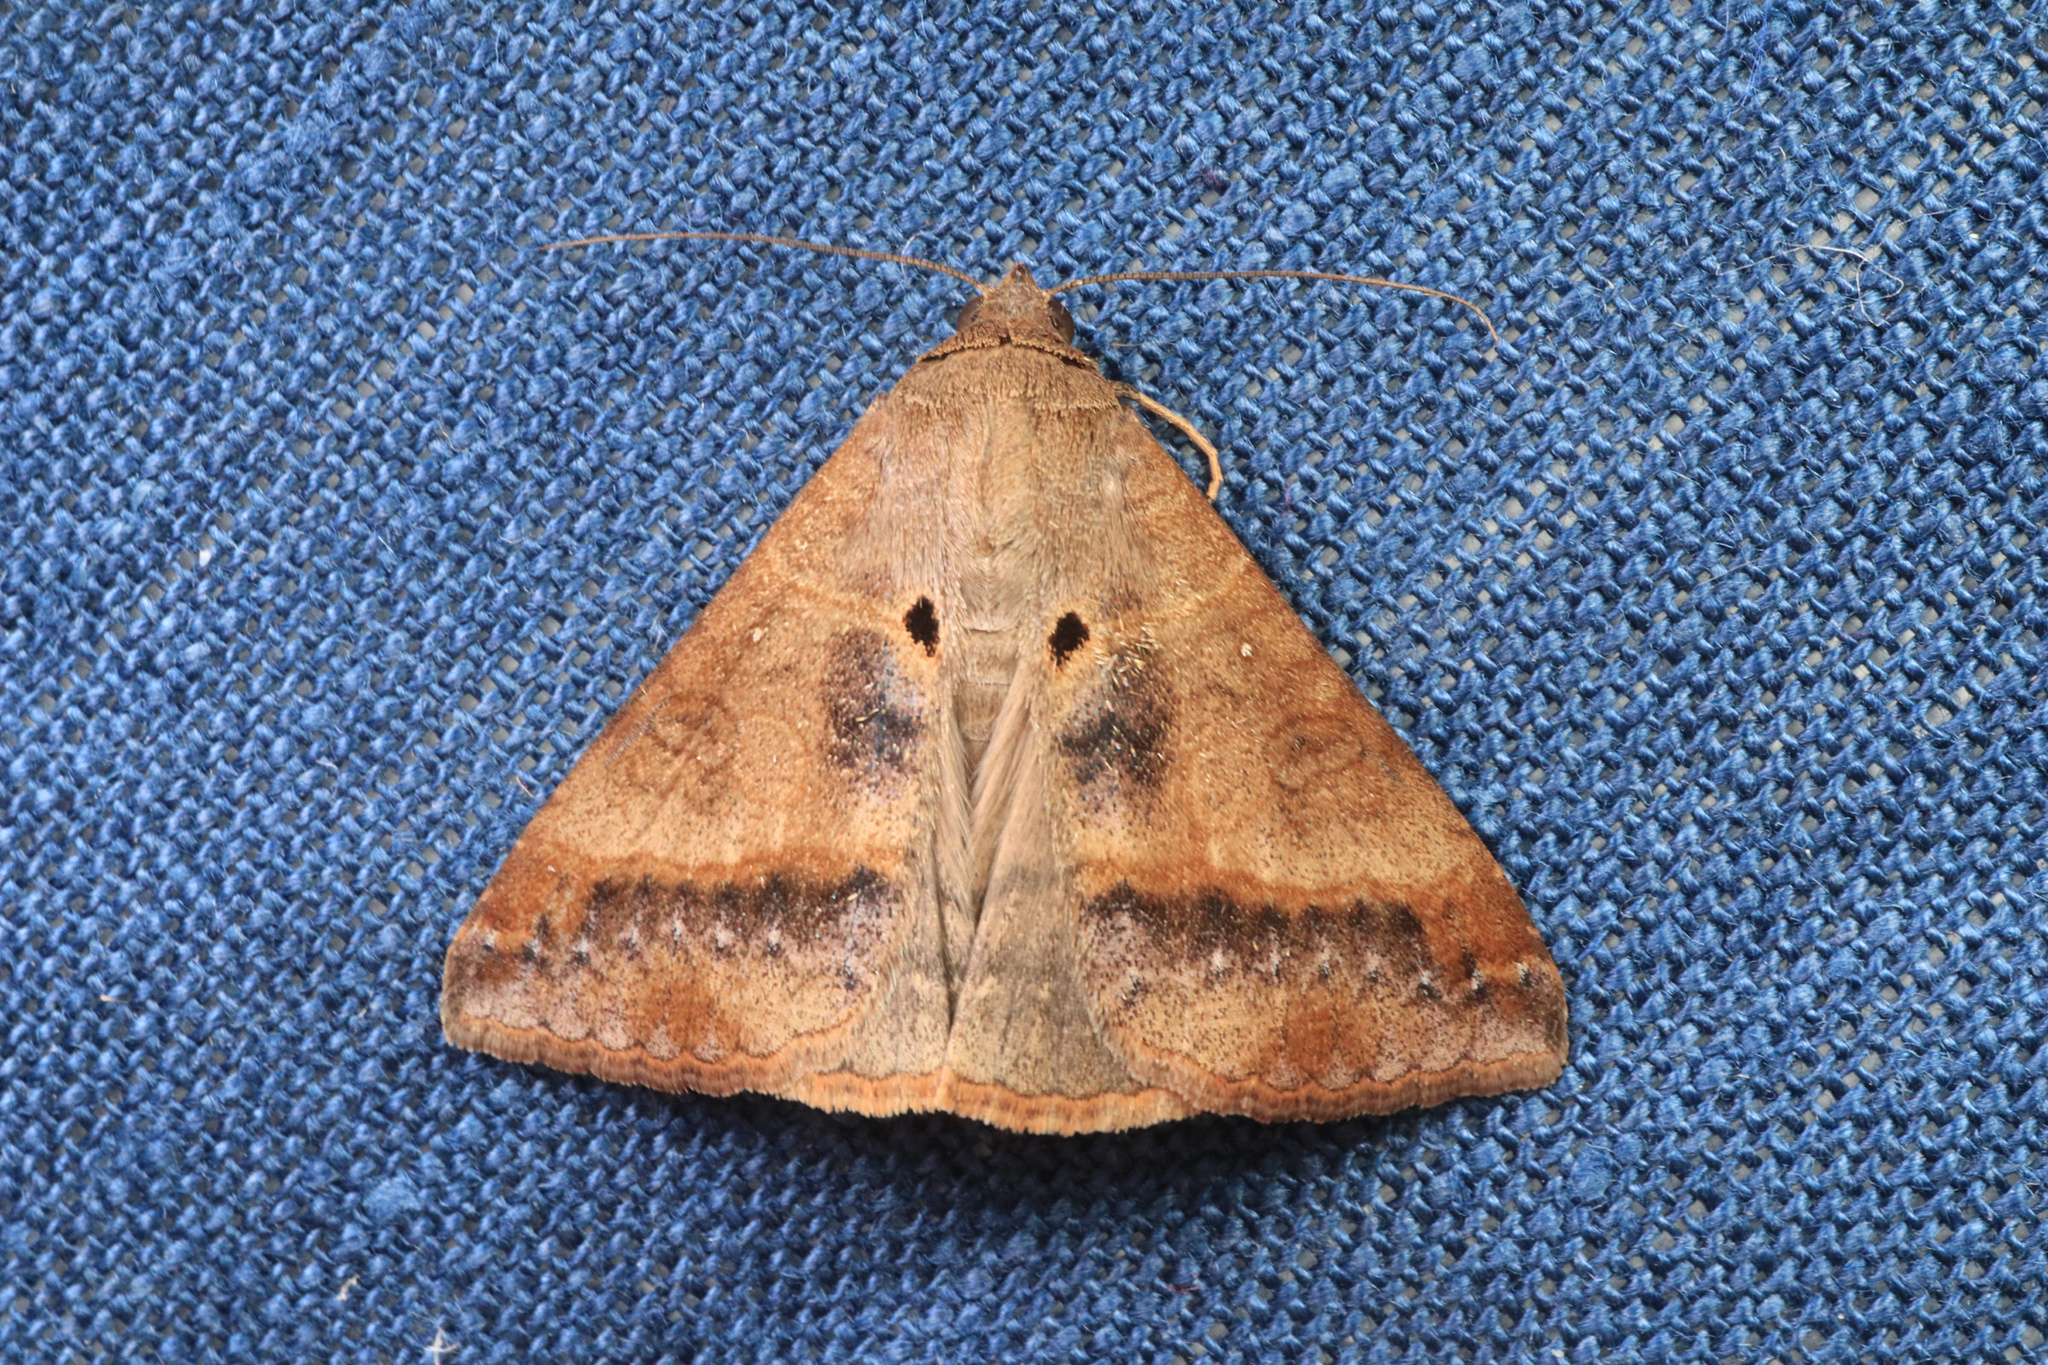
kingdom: Animalia
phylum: Arthropoda
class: Insecta
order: Lepidoptera
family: Erebidae
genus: Mocis
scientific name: Mocis latipes
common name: Striped grass looper
